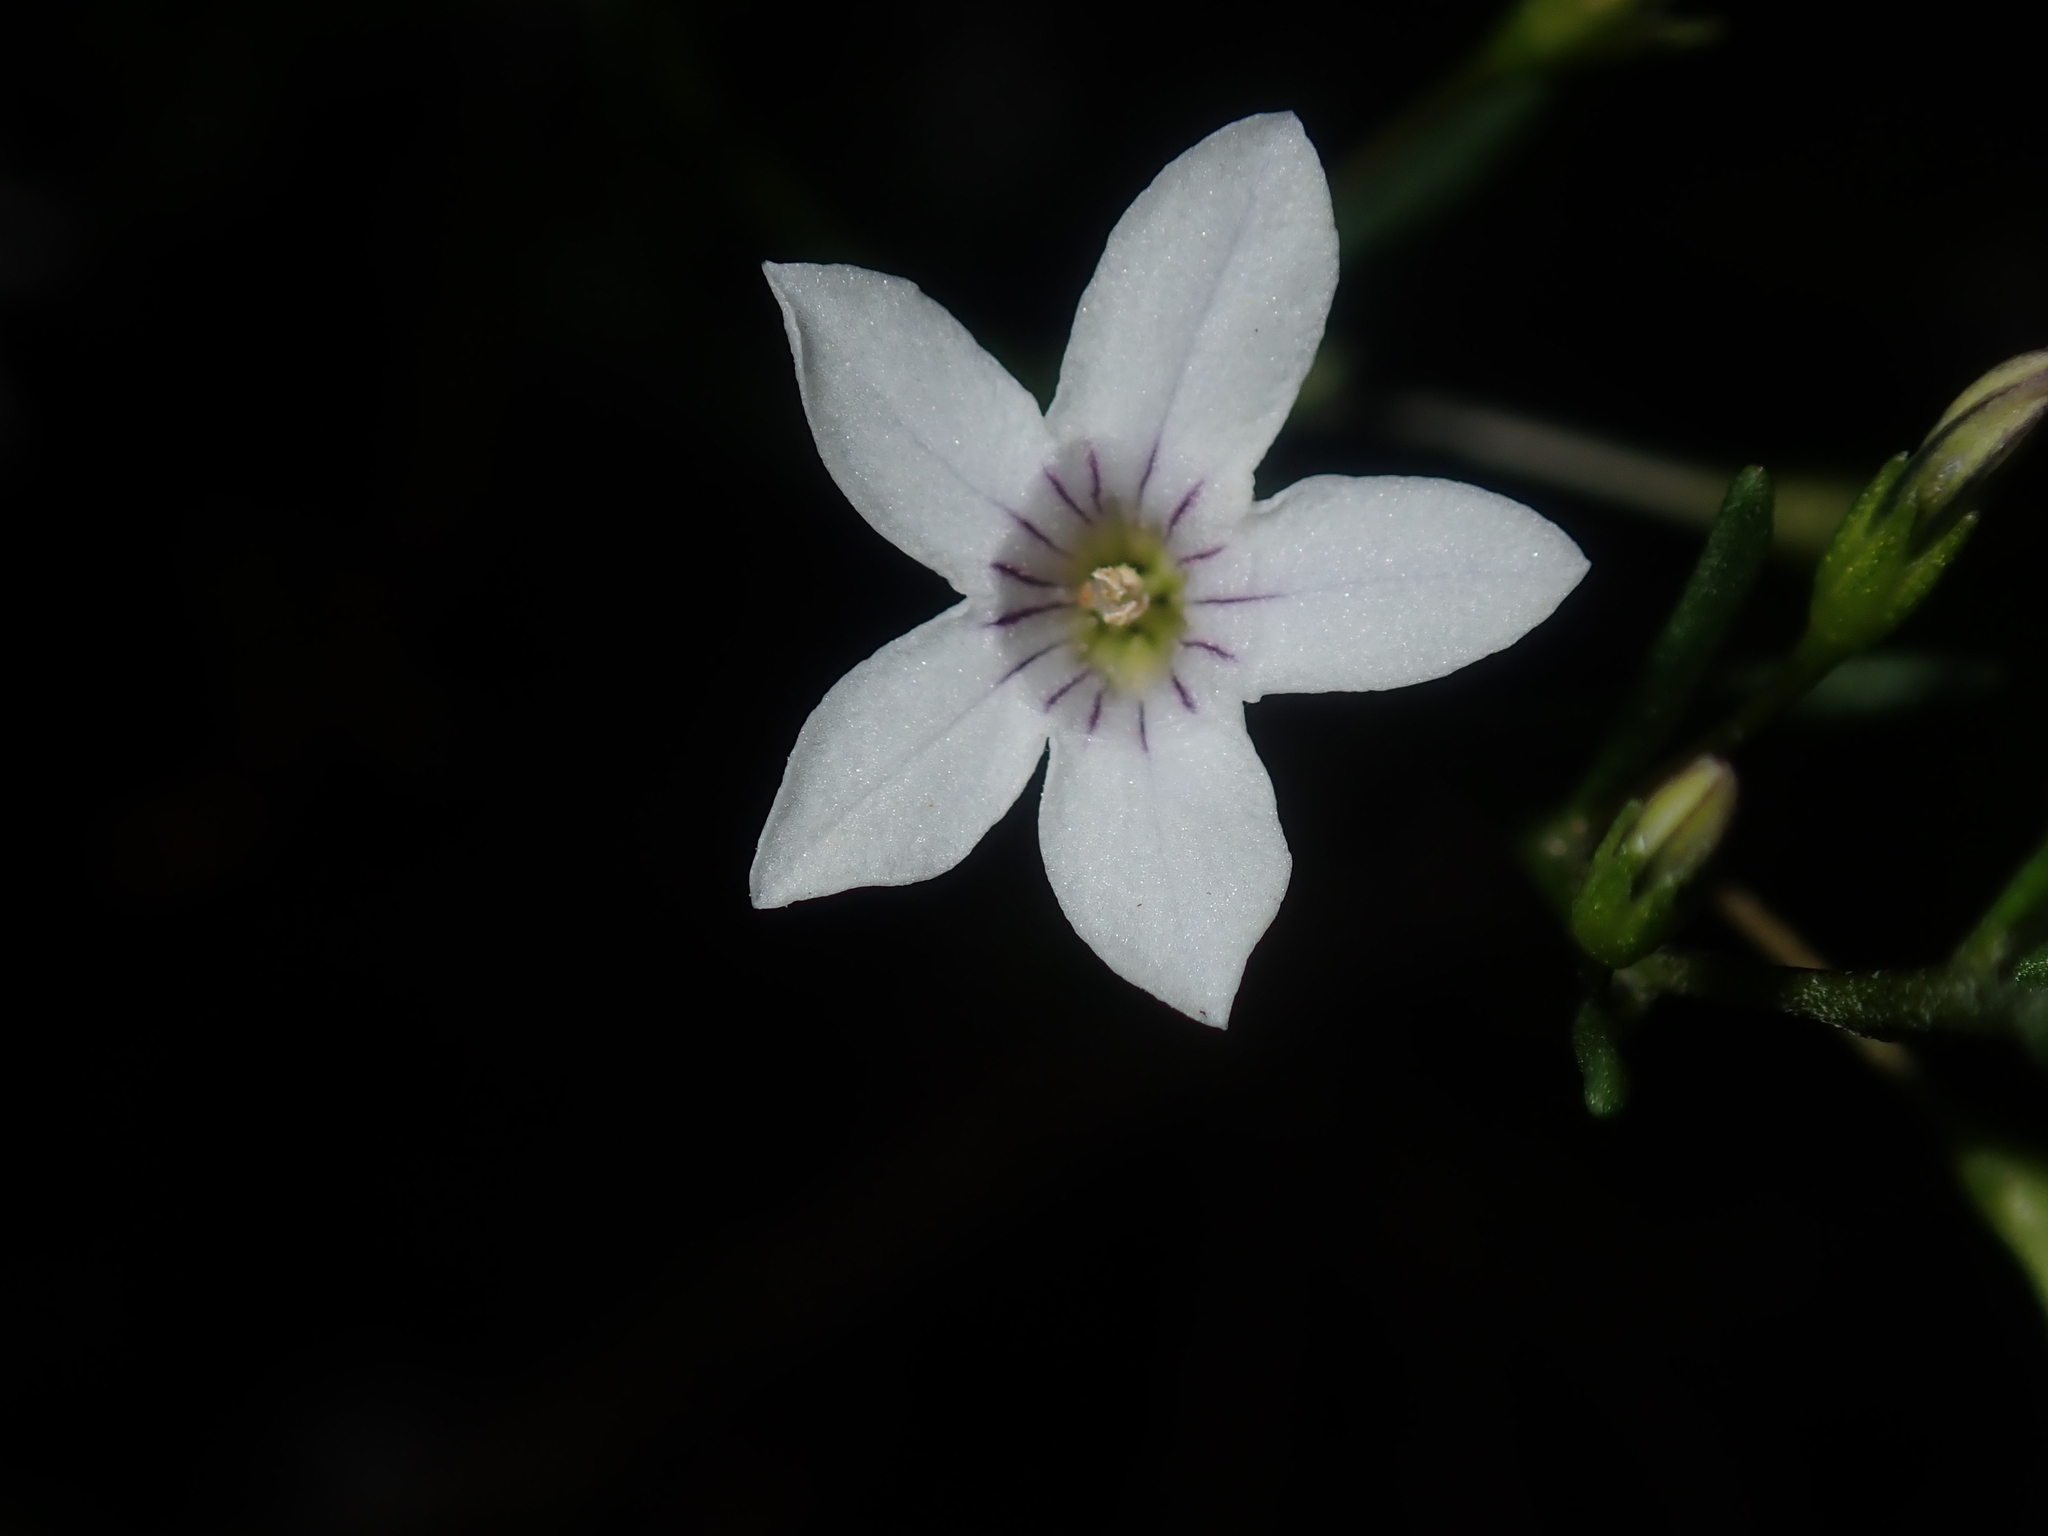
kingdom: Plantae
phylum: Tracheophyta
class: Magnoliopsida
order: Solanales
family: Solanaceae
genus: Cyphanthera
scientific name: Cyphanthera racemosa
